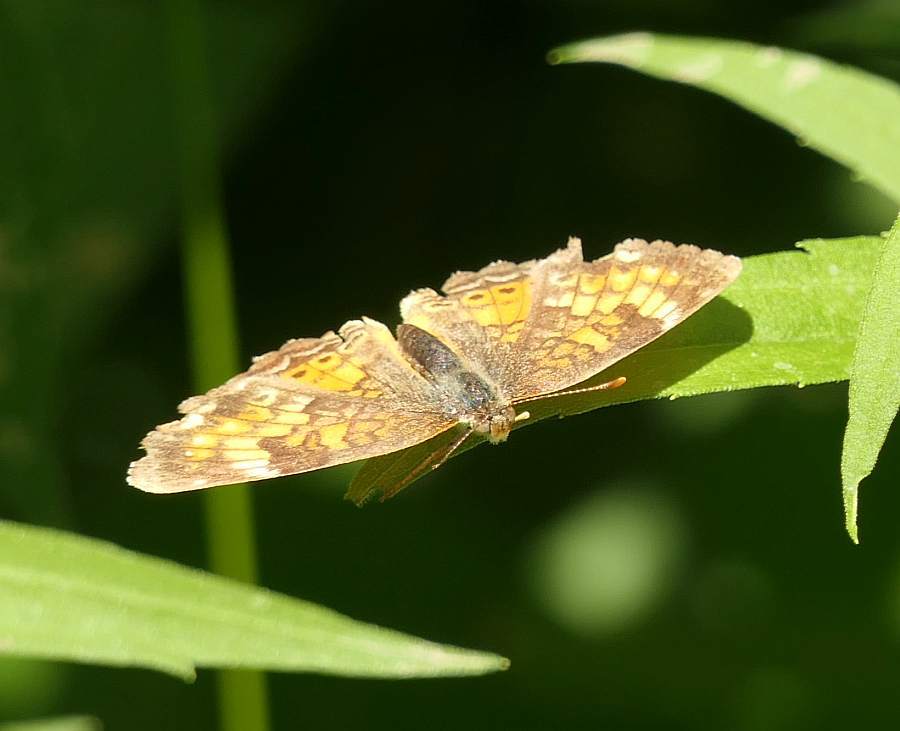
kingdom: Animalia
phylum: Arthropoda
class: Insecta
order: Lepidoptera
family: Nymphalidae
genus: Phyciodes
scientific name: Phyciodes tharos
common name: Pearl crescent
